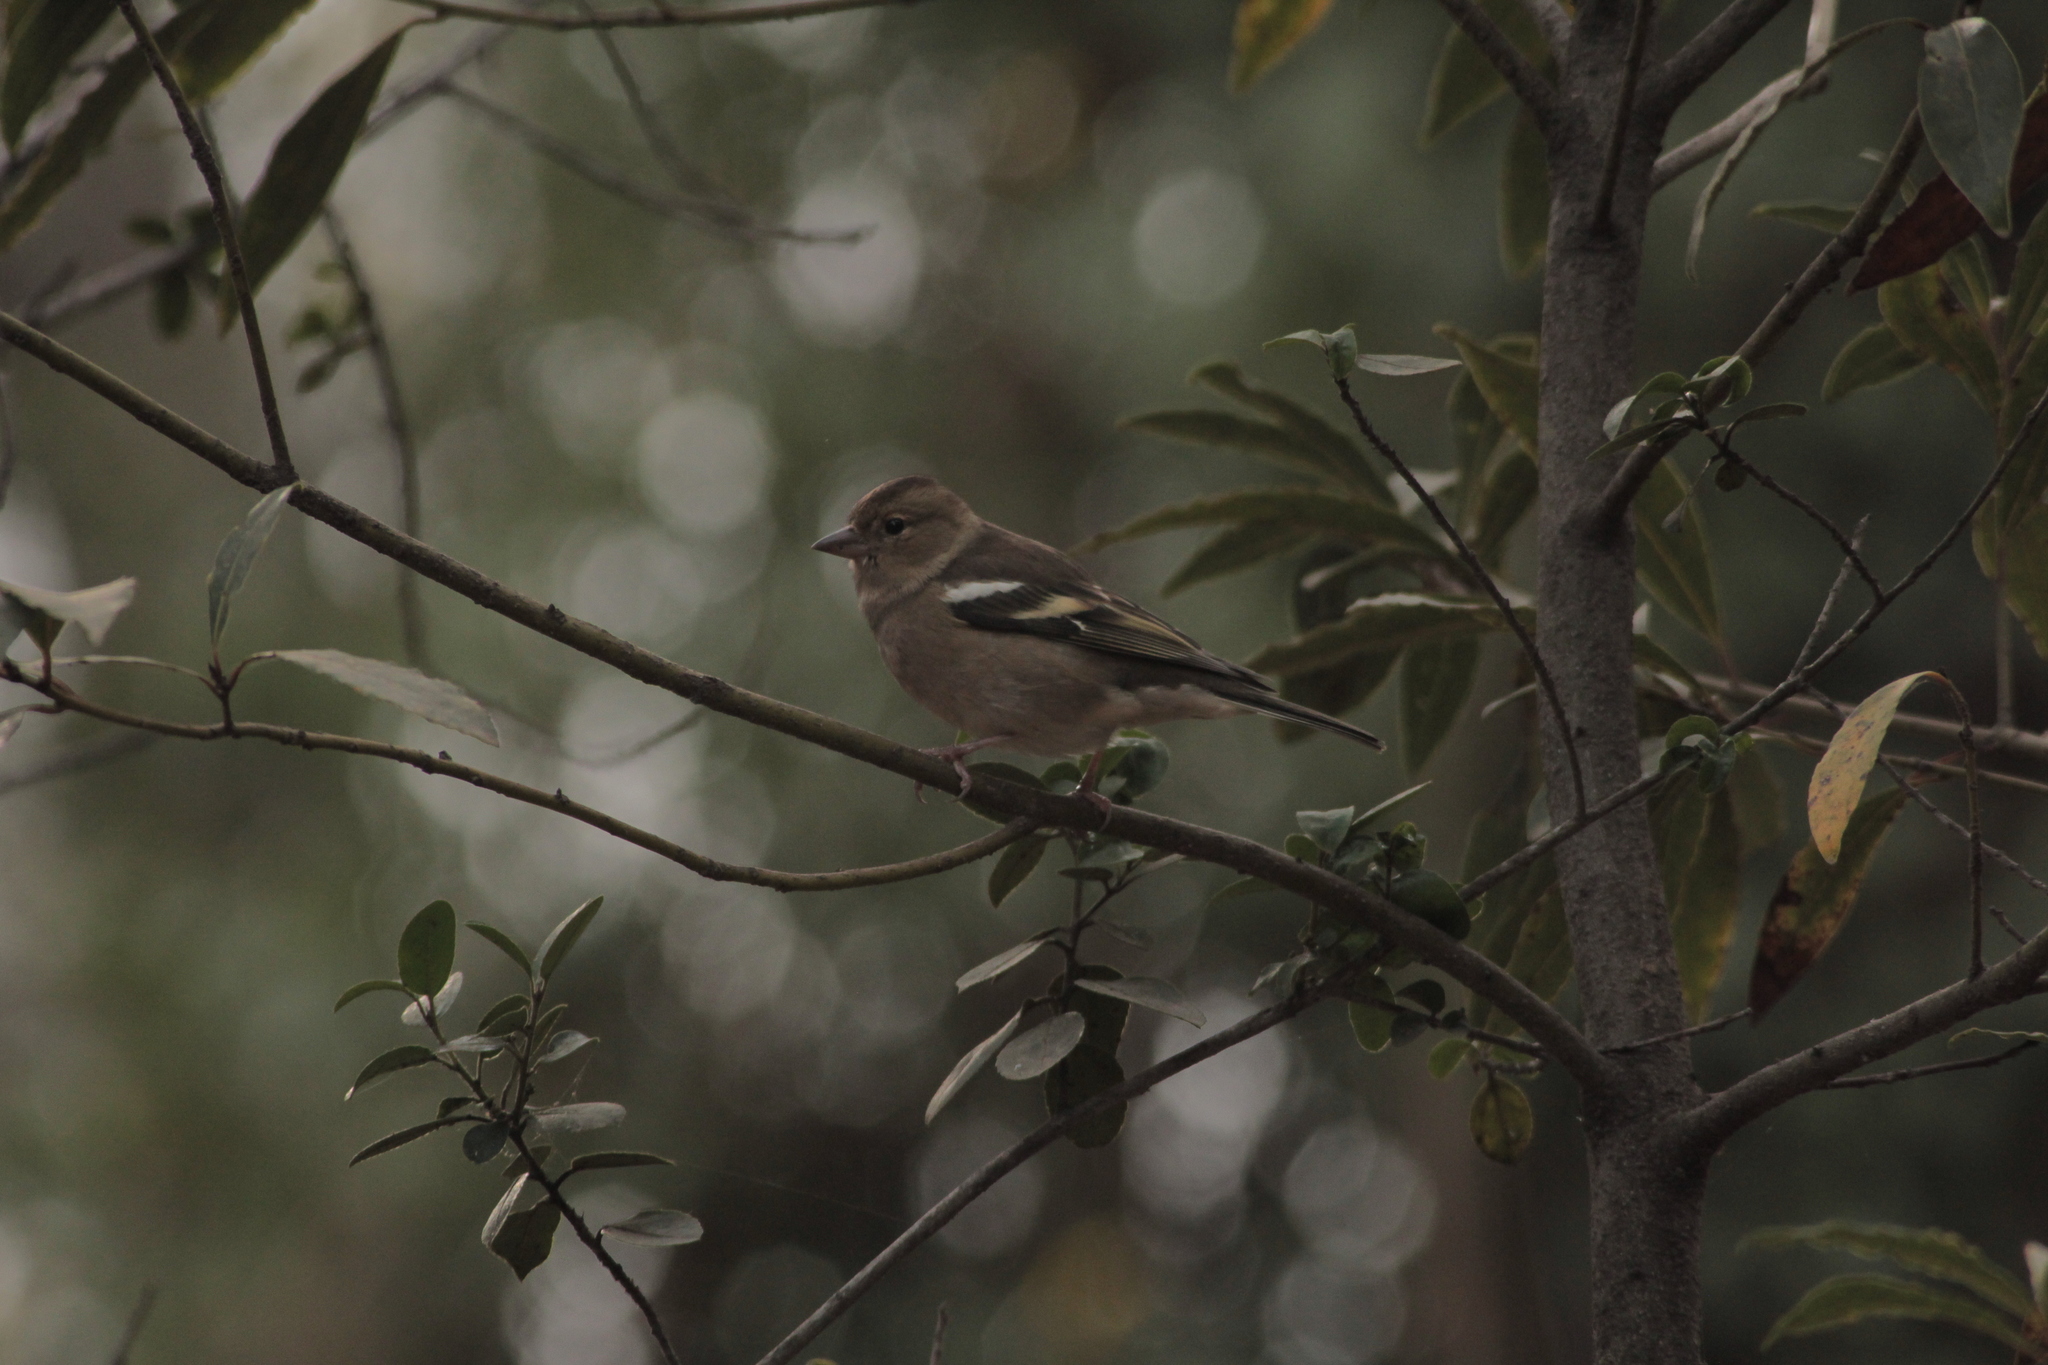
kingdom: Animalia
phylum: Chordata
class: Aves
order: Passeriformes
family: Fringillidae
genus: Fringilla
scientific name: Fringilla coelebs
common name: Common chaffinch
